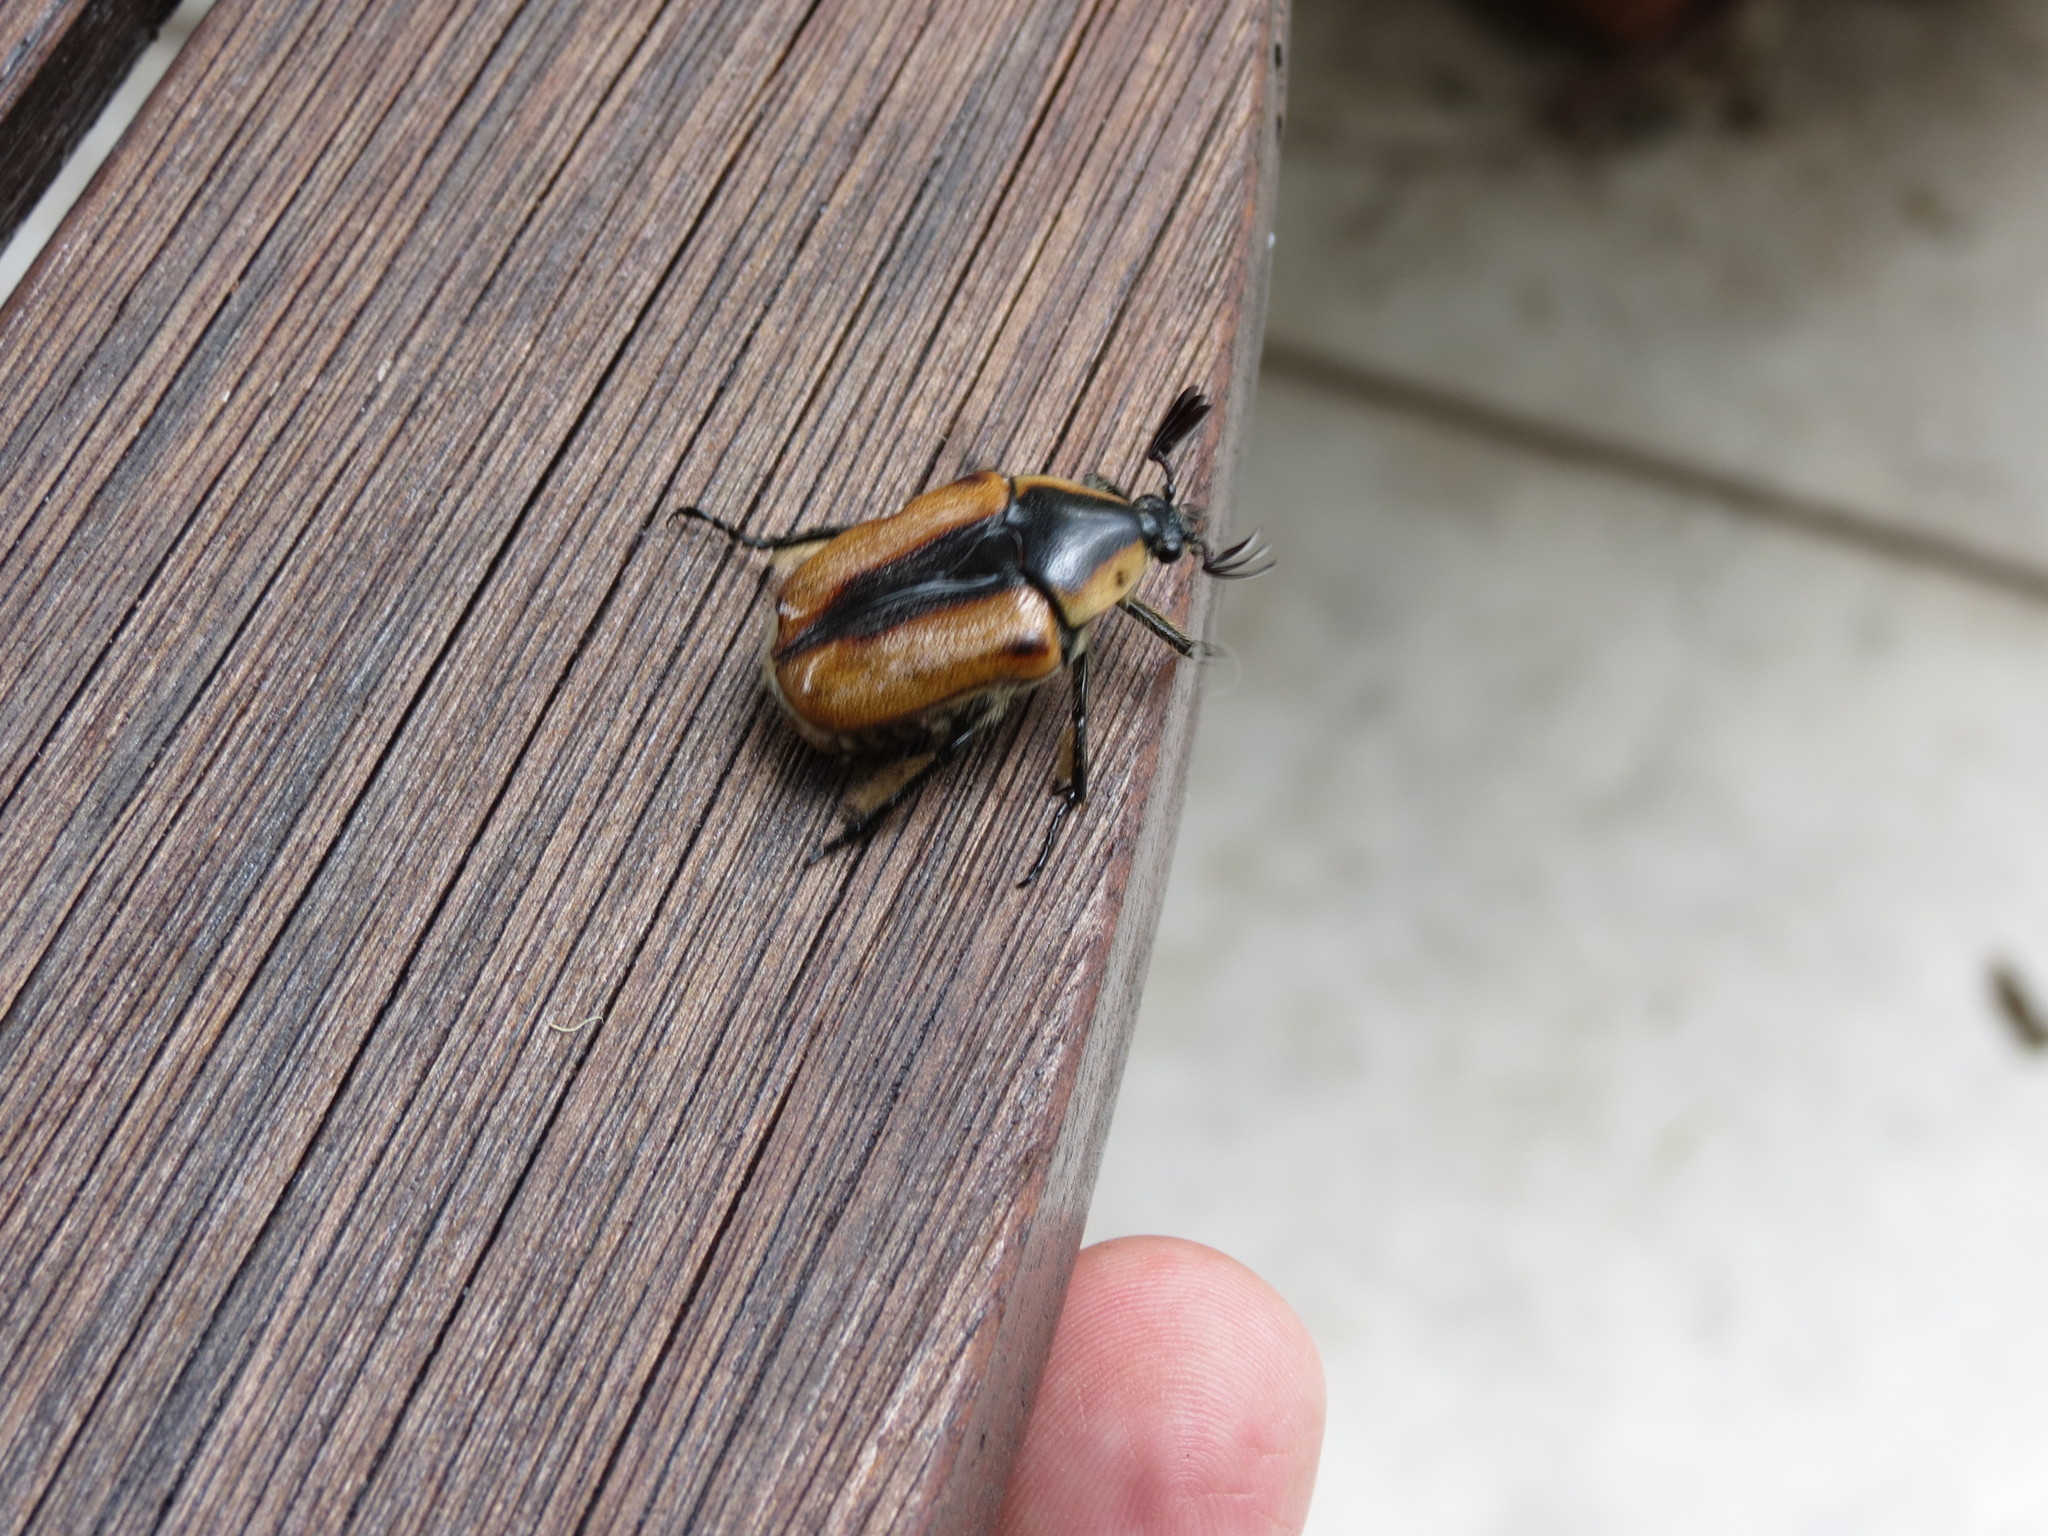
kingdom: Animalia
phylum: Arthropoda
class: Insecta
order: Coleoptera
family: Scarabaeidae
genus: Chondropyga
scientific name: Chondropyga dorsalis
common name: Cowboy beetle
